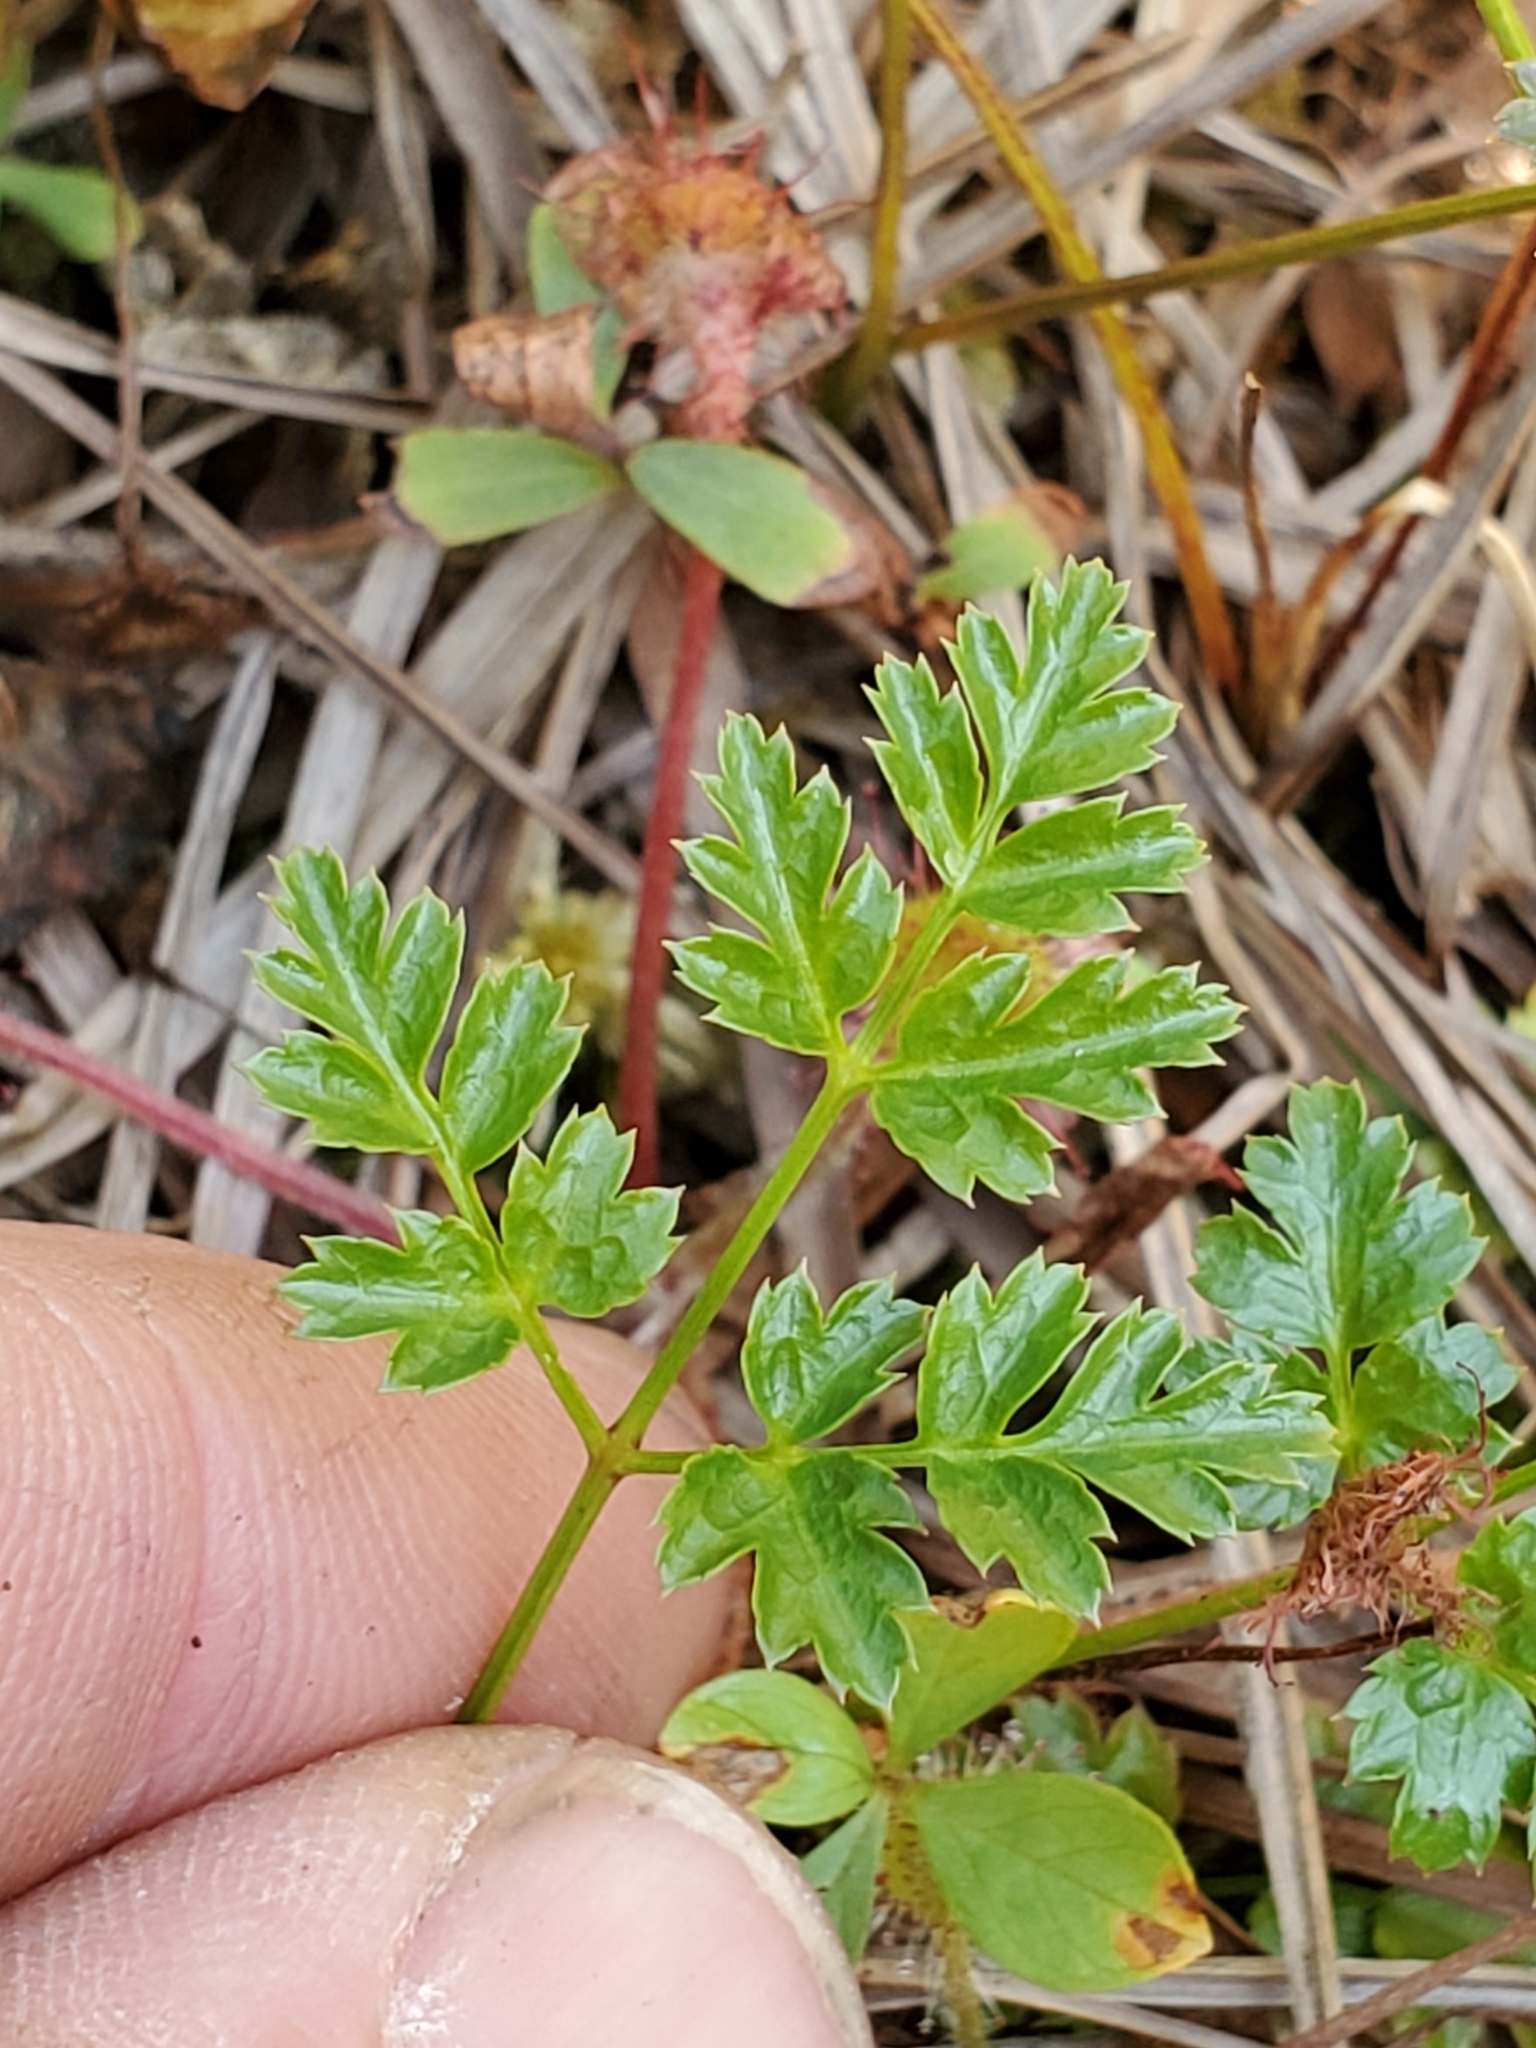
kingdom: Plantae
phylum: Tracheophyta
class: Magnoliopsida
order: Ranunculales
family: Ranunculaceae
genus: Coptis
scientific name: Coptis aspleniifolia
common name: Fern-leaved goldthread
